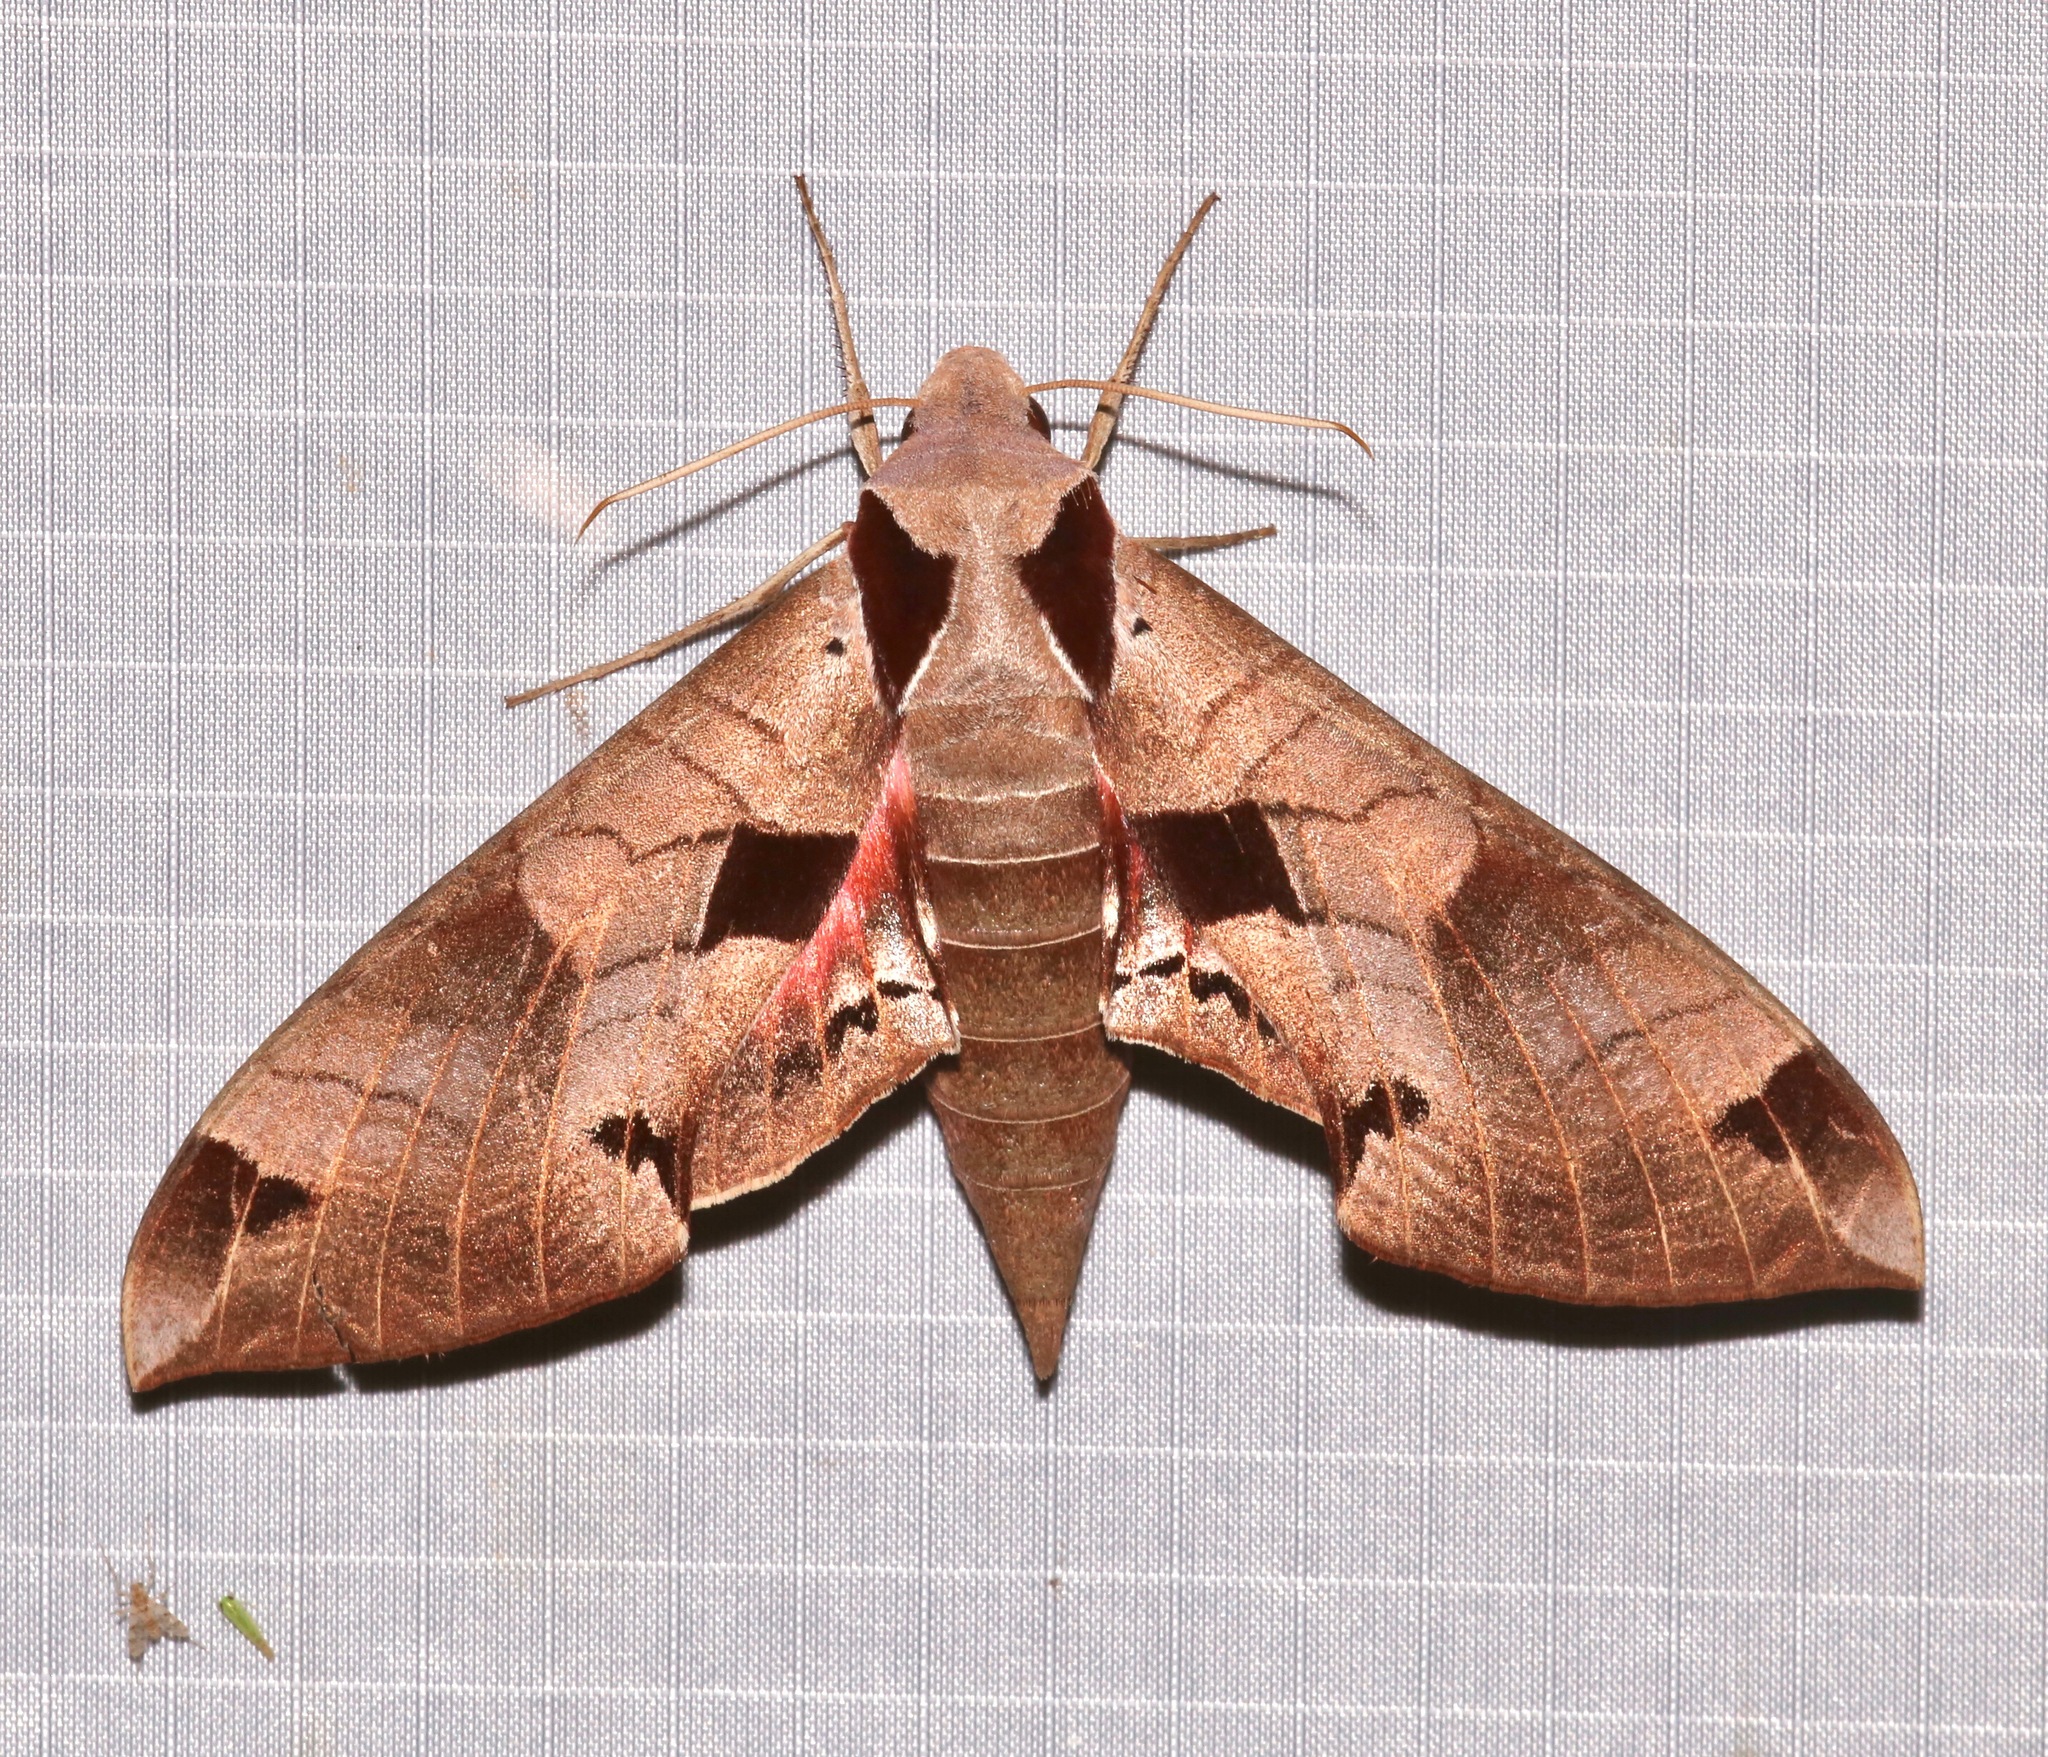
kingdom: Animalia
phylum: Arthropoda
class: Insecta
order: Lepidoptera
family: Sphingidae
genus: Eumorpha
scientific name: Eumorpha achemon
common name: Achemon sphinx
